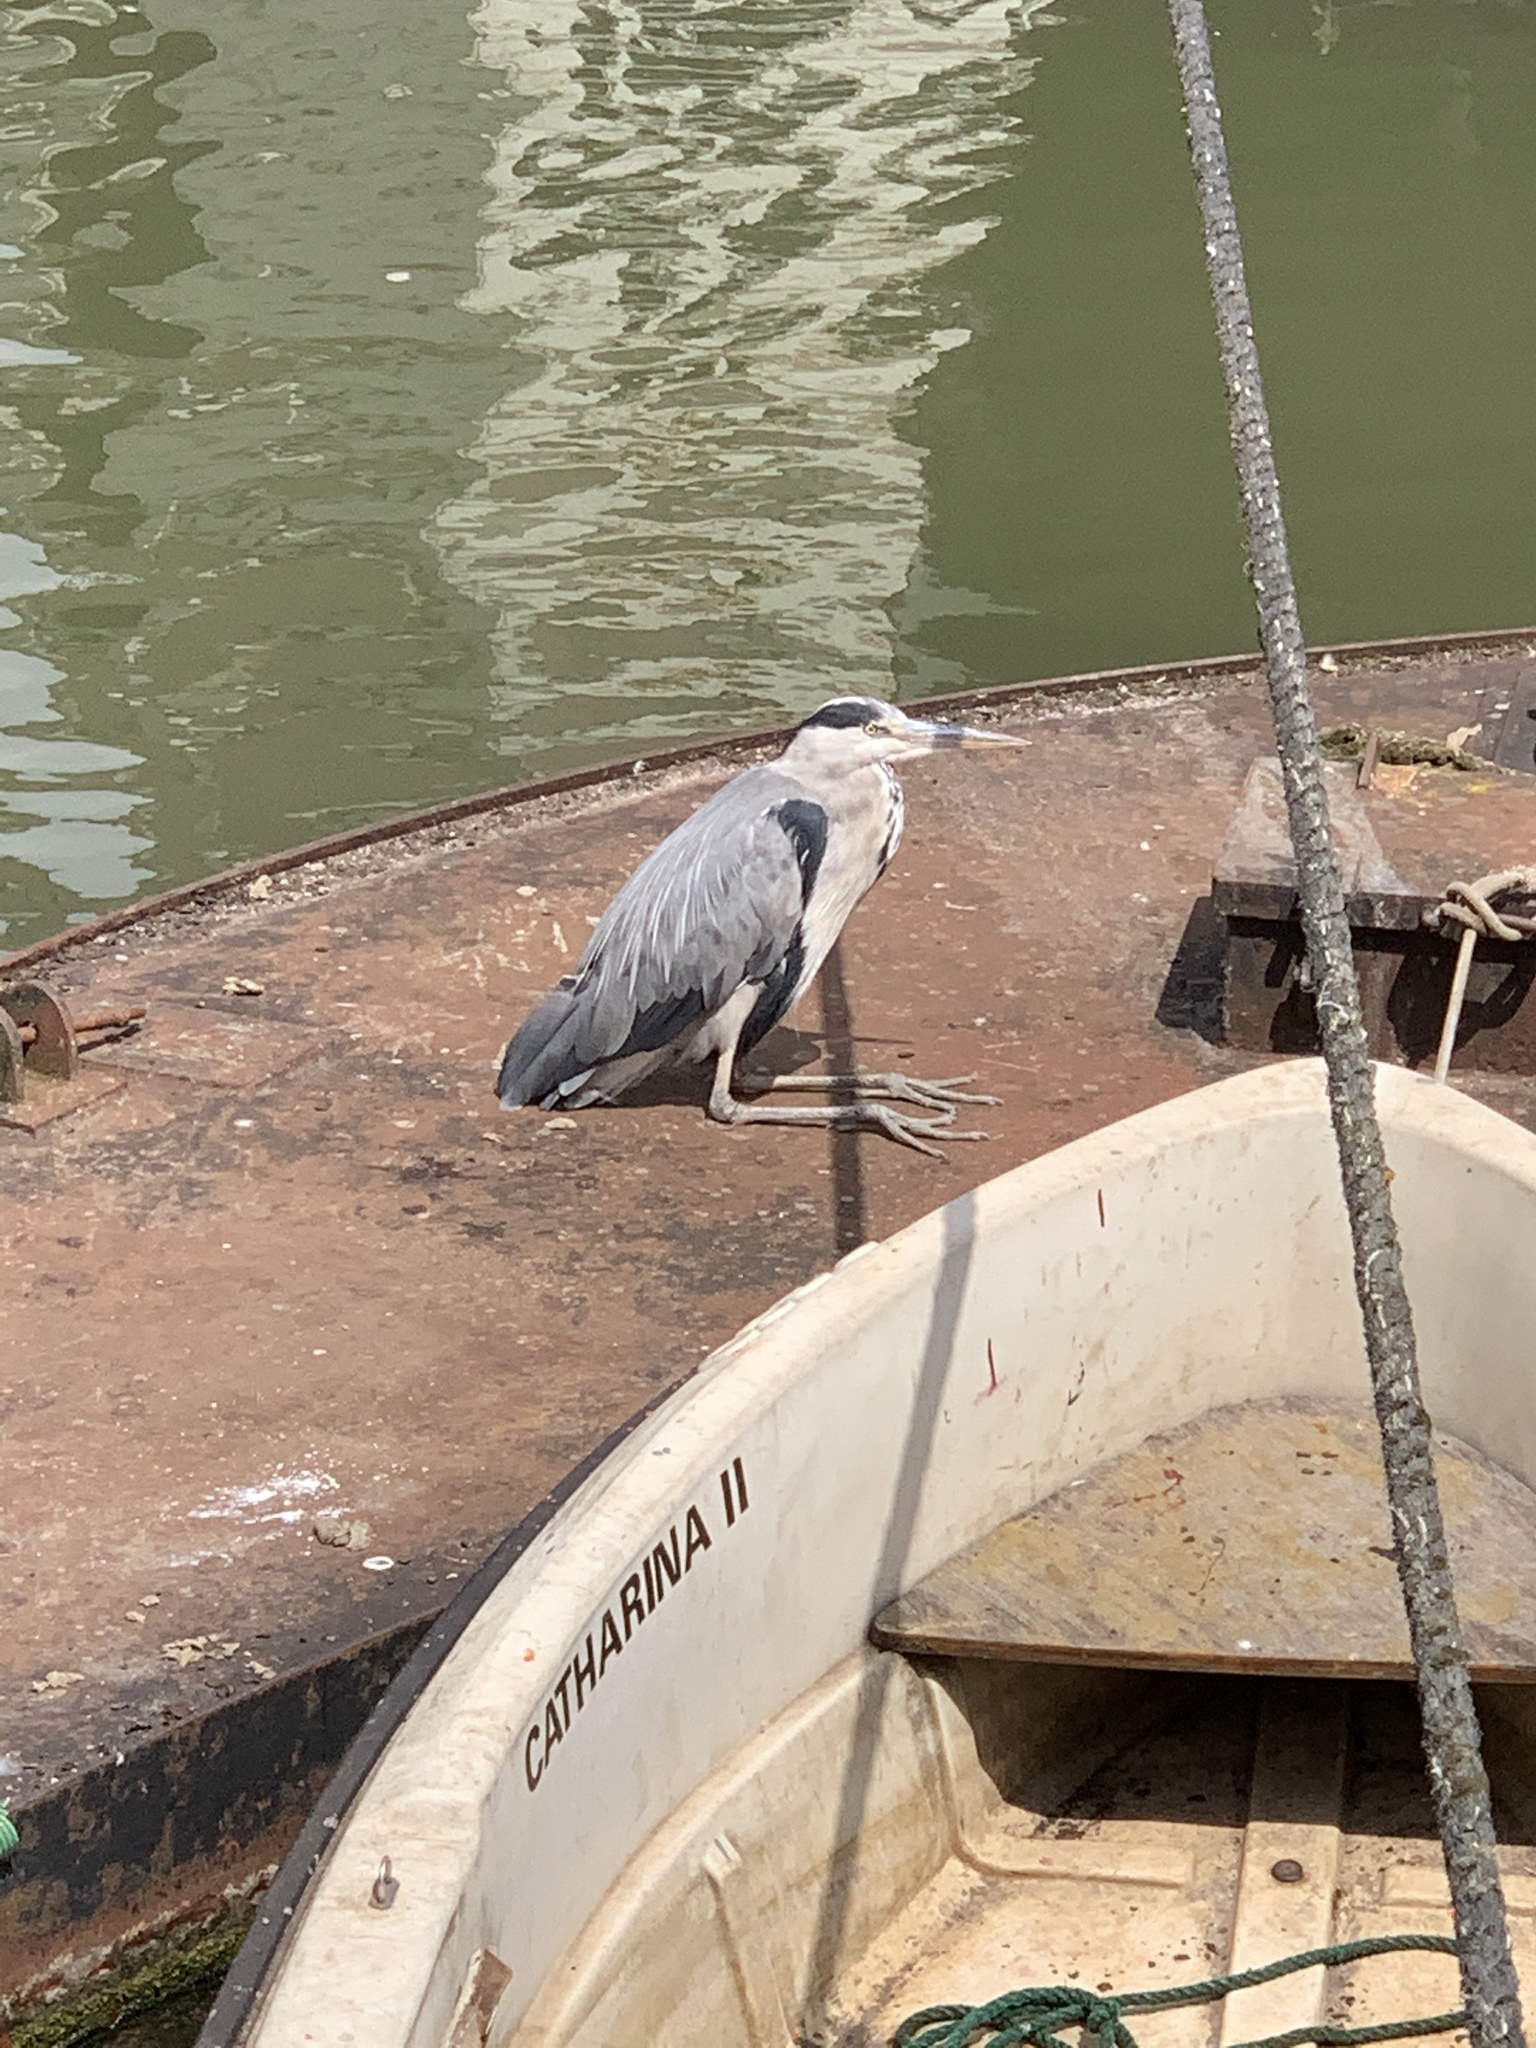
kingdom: Animalia
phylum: Chordata
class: Aves
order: Pelecaniformes
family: Ardeidae
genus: Ardea
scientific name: Ardea cinerea
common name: Grey heron
